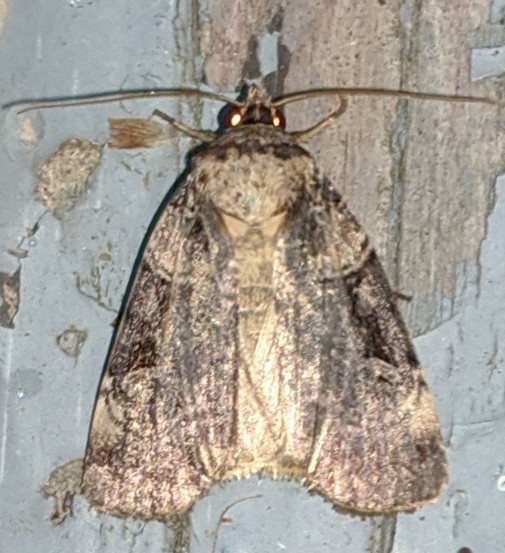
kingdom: Animalia
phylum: Arthropoda
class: Insecta
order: Lepidoptera
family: Noctuidae
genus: Pseudohermonassa
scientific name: Pseudohermonassa bicarnea
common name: Pink spotted dart
